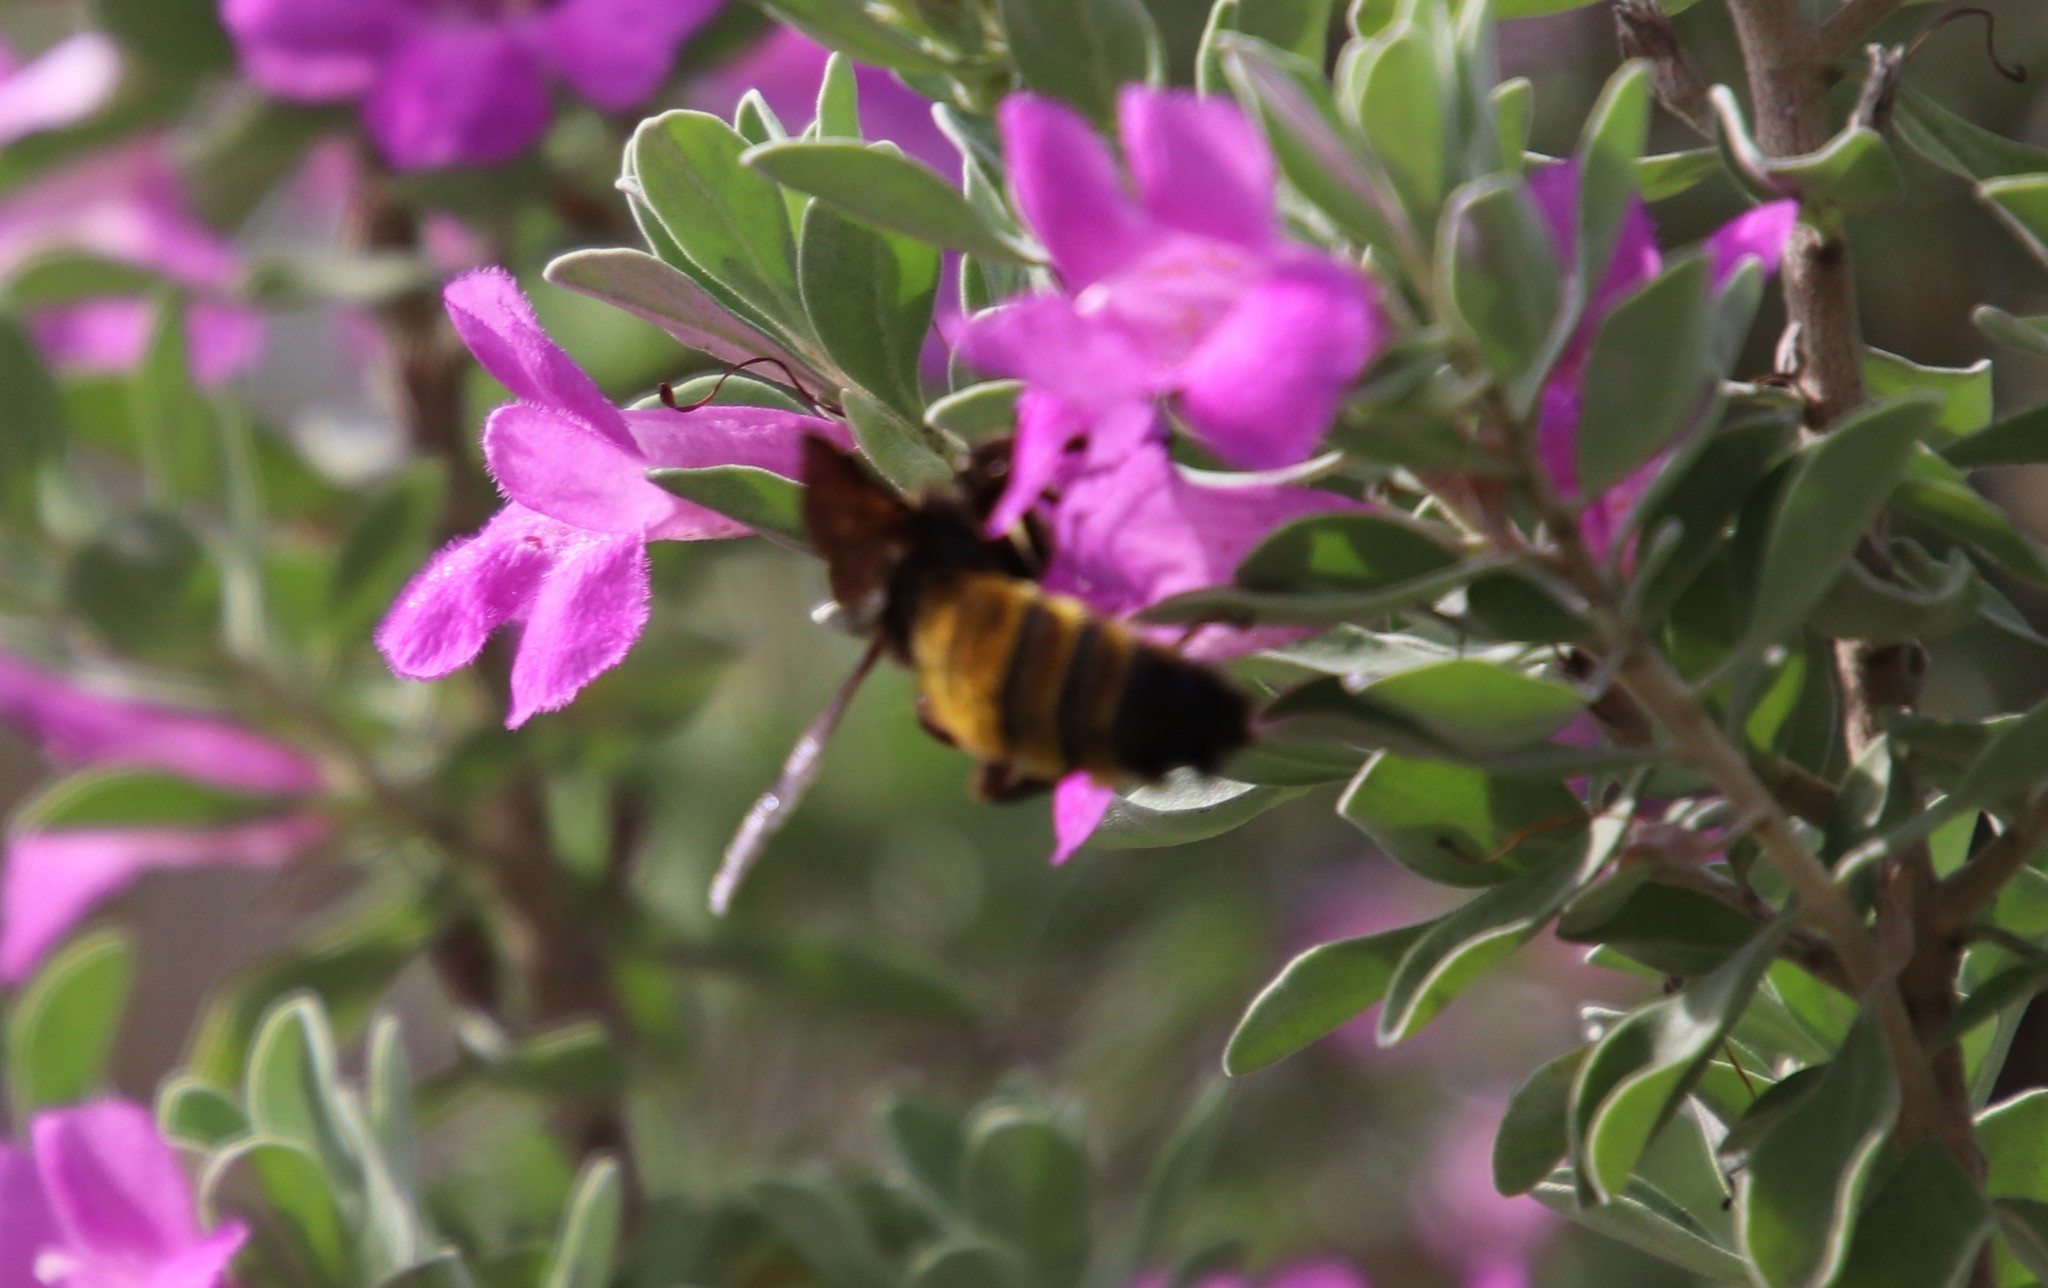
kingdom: Animalia
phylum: Arthropoda
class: Insecta
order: Hymenoptera
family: Apidae
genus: Bombus
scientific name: Bombus pensylvanicus
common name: Bumble bee
